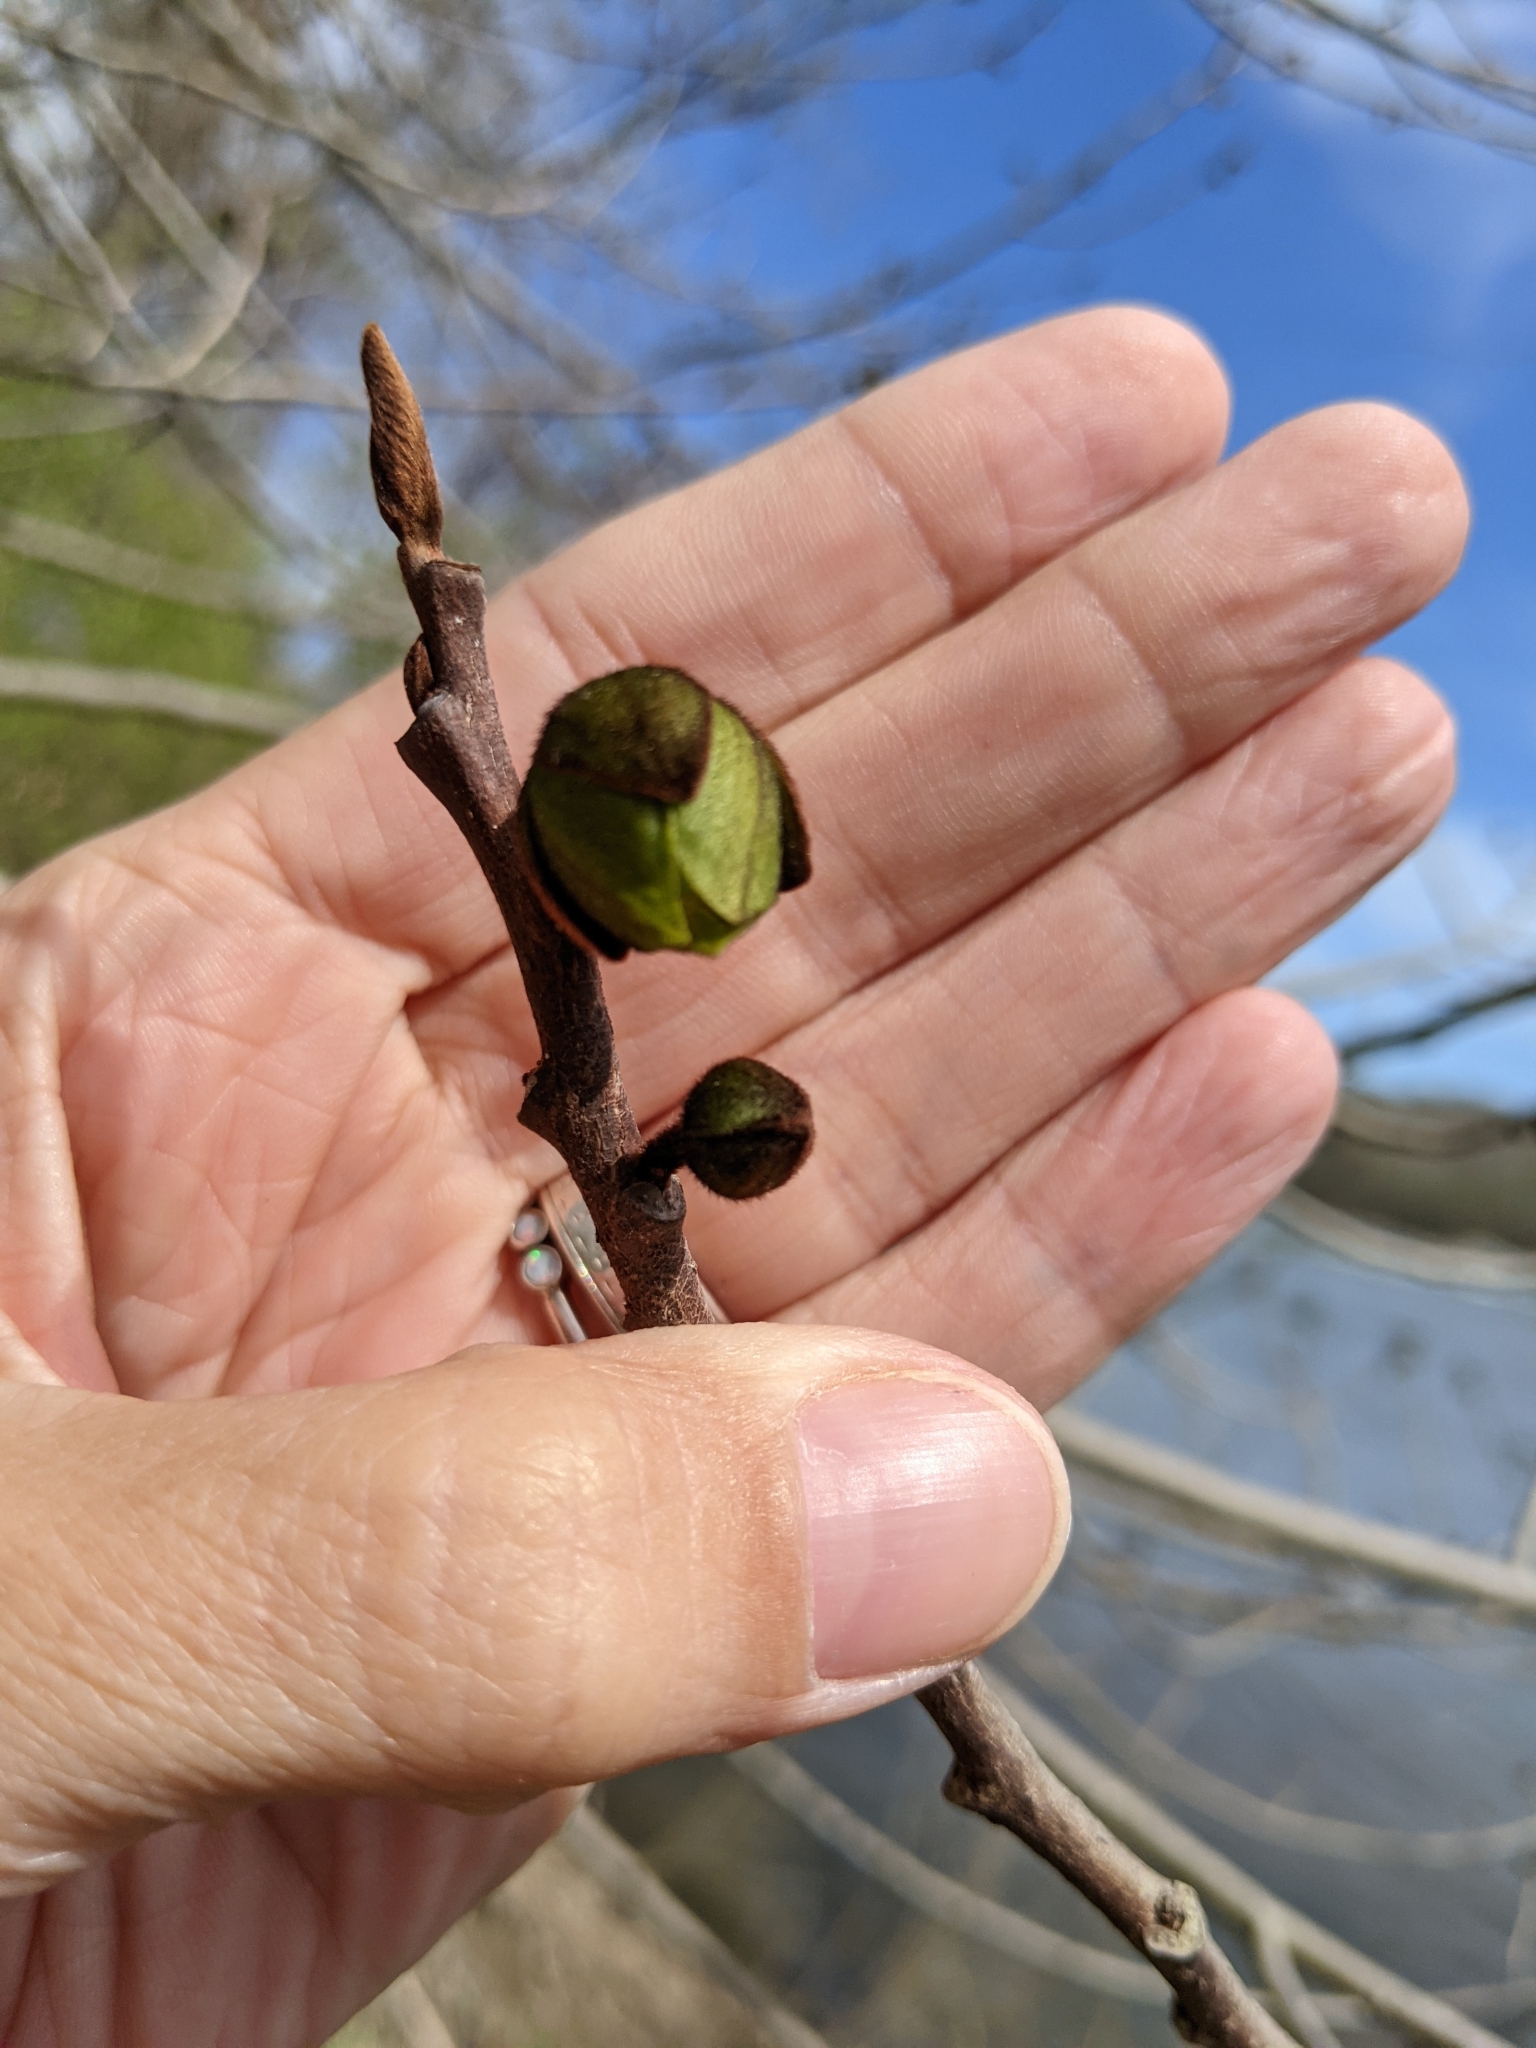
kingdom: Plantae
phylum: Tracheophyta
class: Magnoliopsida
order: Magnoliales
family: Annonaceae
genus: Asimina
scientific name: Asimina triloba
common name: Dog-banana
